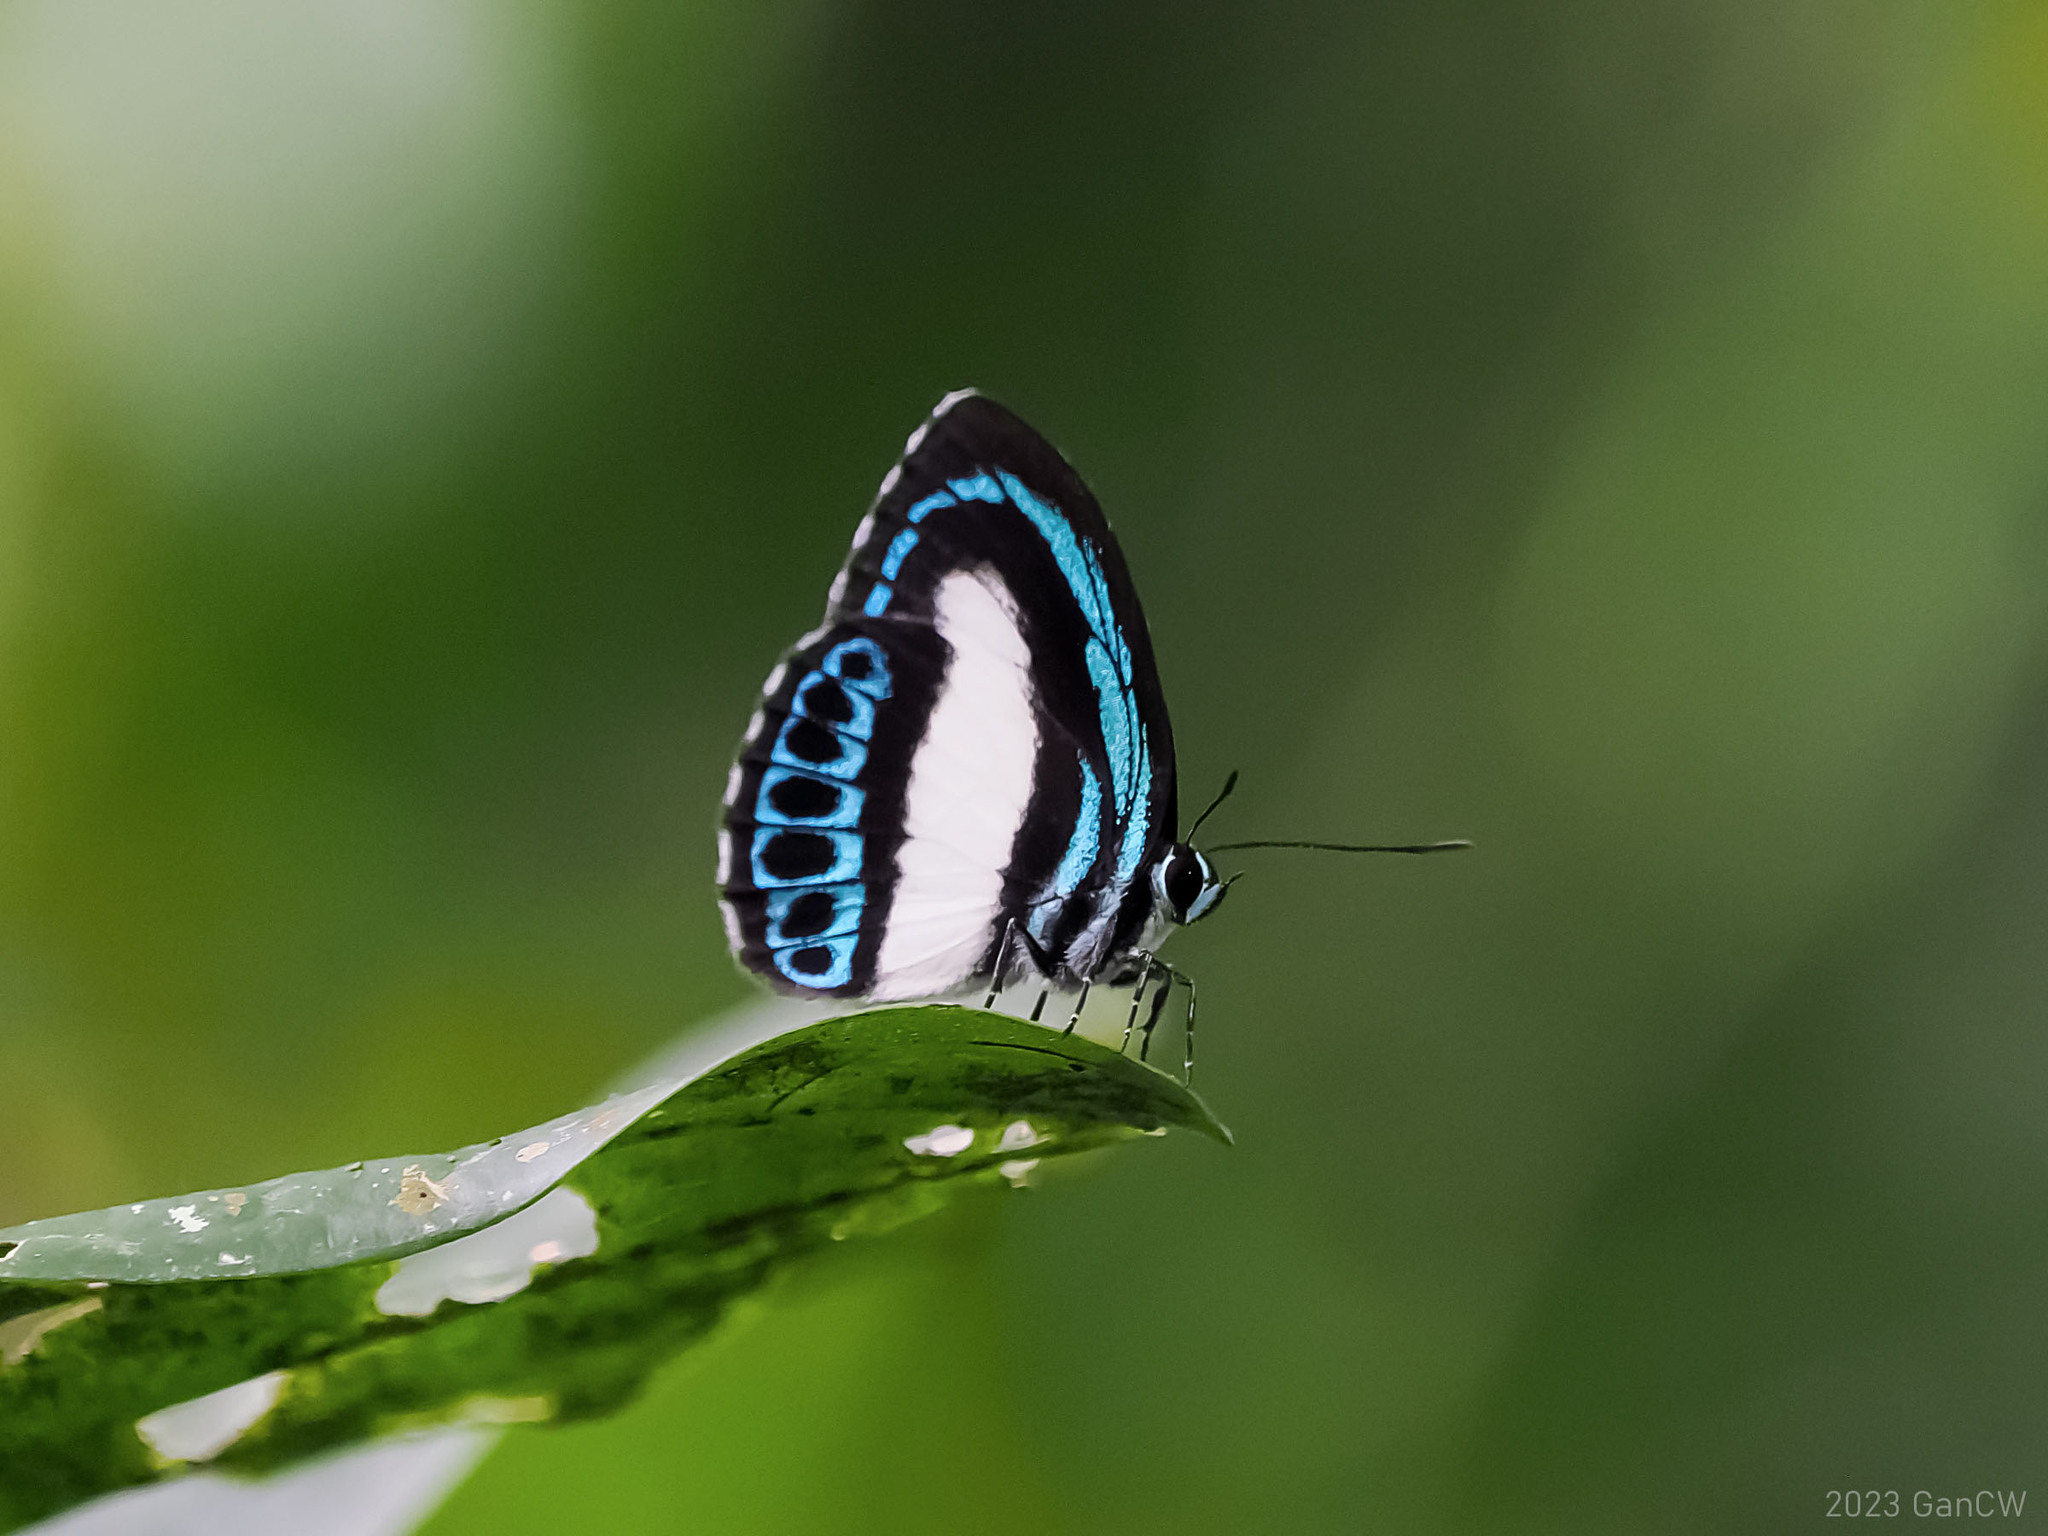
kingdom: Animalia
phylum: Arthropoda
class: Insecta
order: Lepidoptera
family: Lycaenidae
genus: Danis
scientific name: Danis danis
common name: Large green-banded blue
